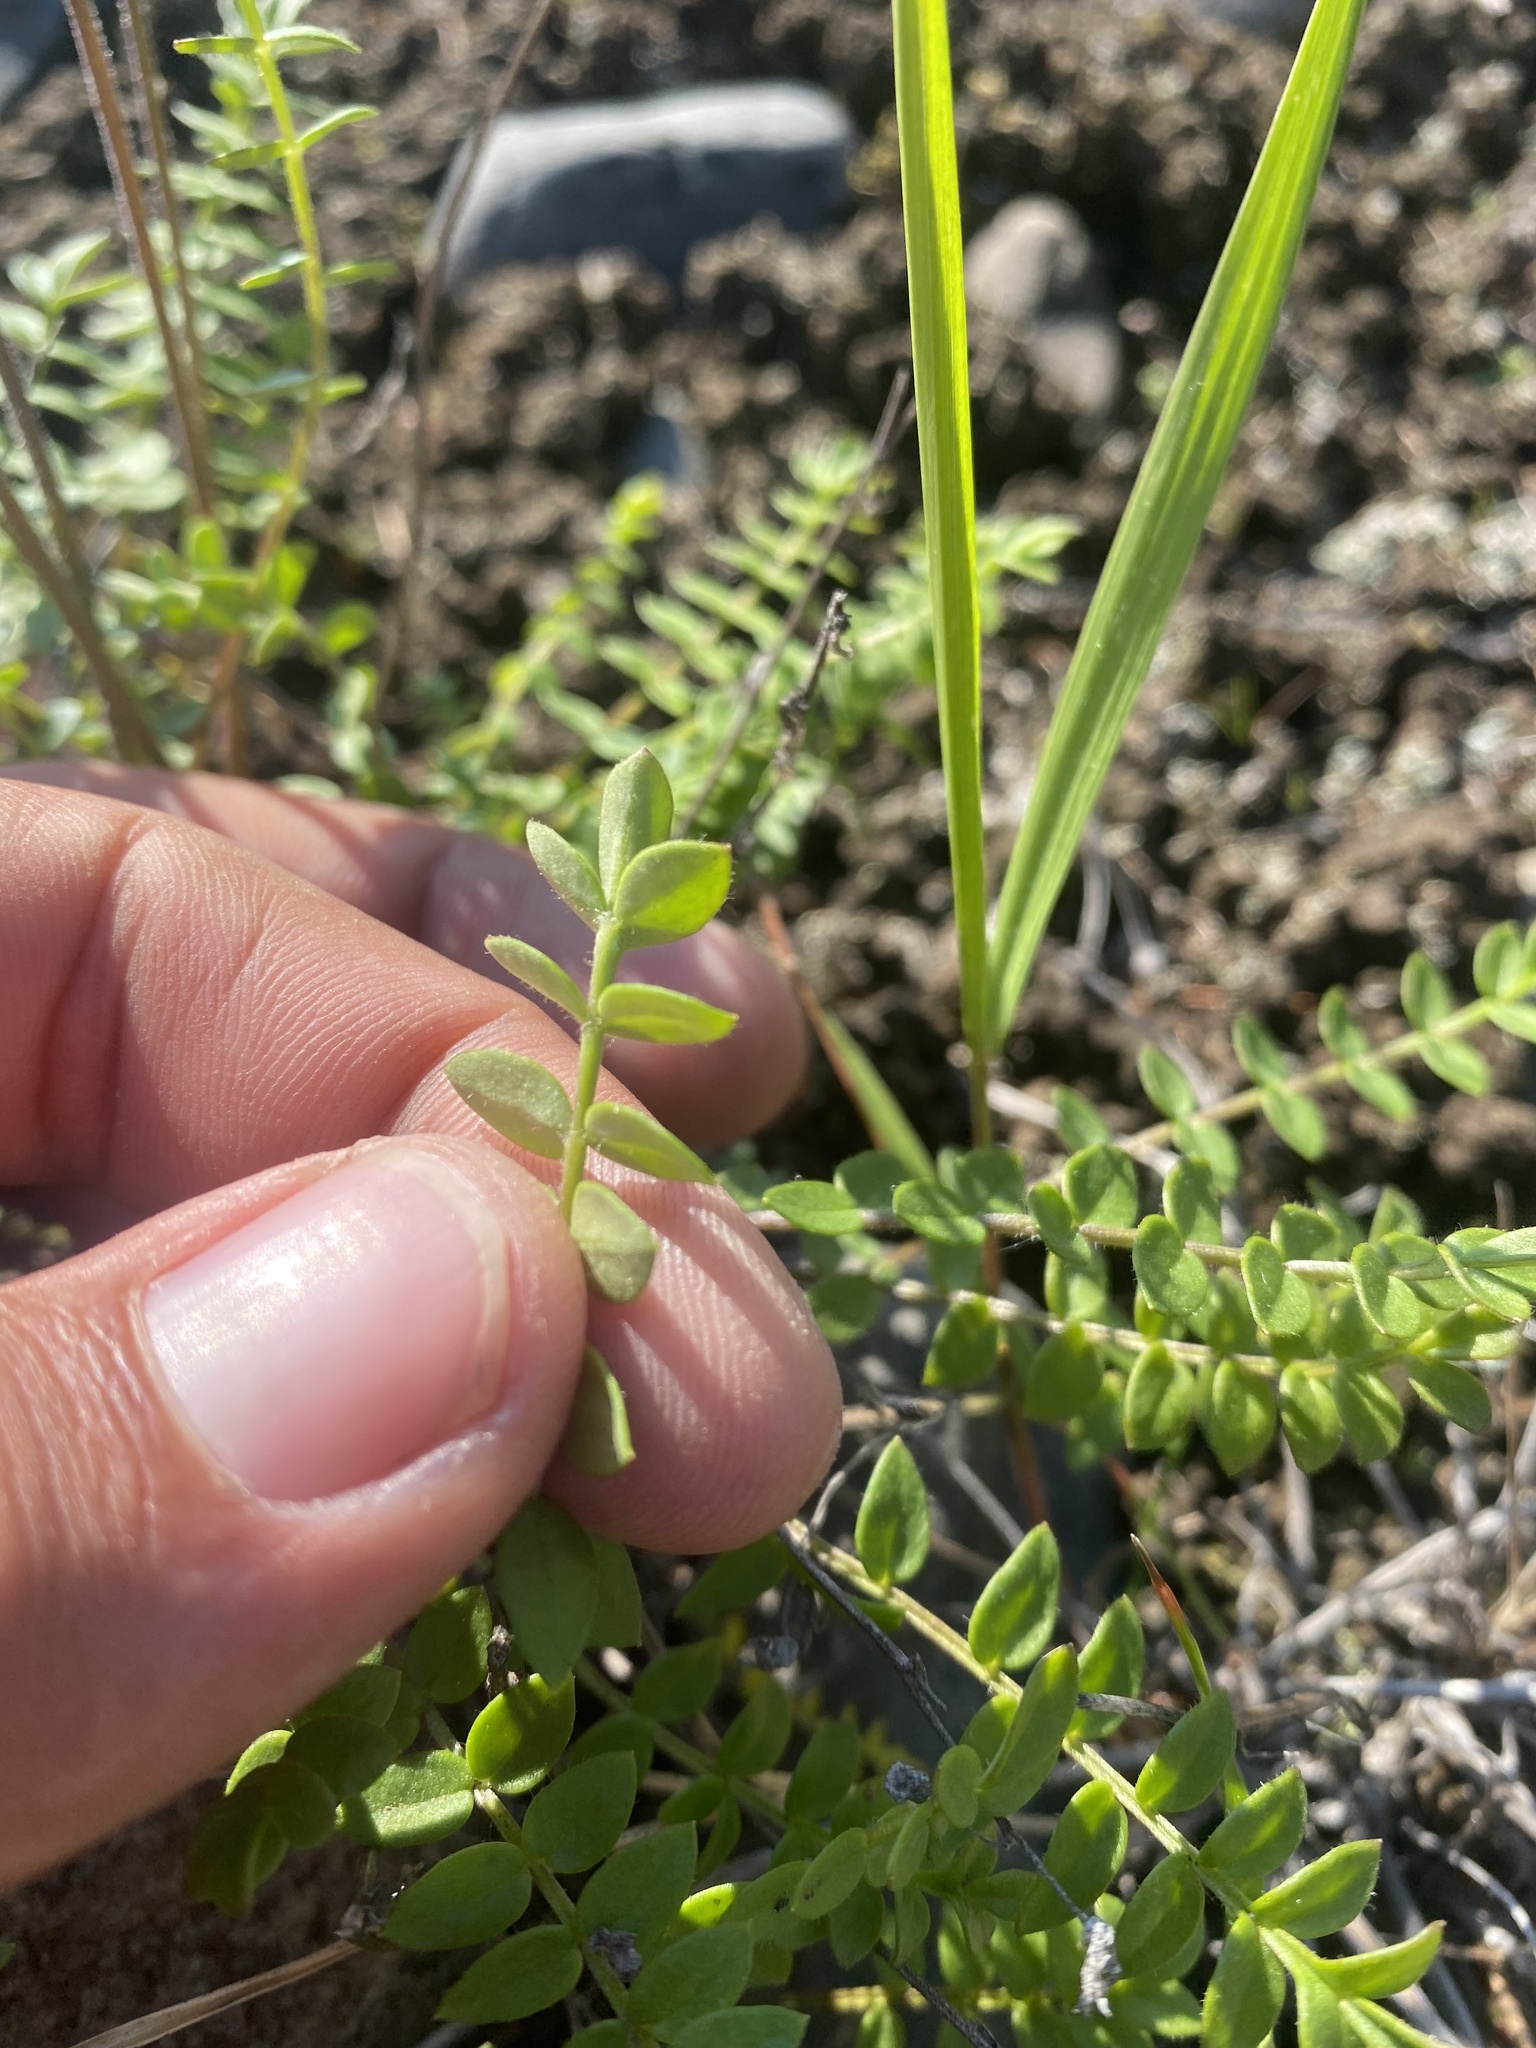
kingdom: Plantae
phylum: Tracheophyta
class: Magnoliopsida
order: Ericales
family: Polemoniaceae
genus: Polemonium
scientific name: Polemonium boreale
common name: Boreal jacob's-ladder
